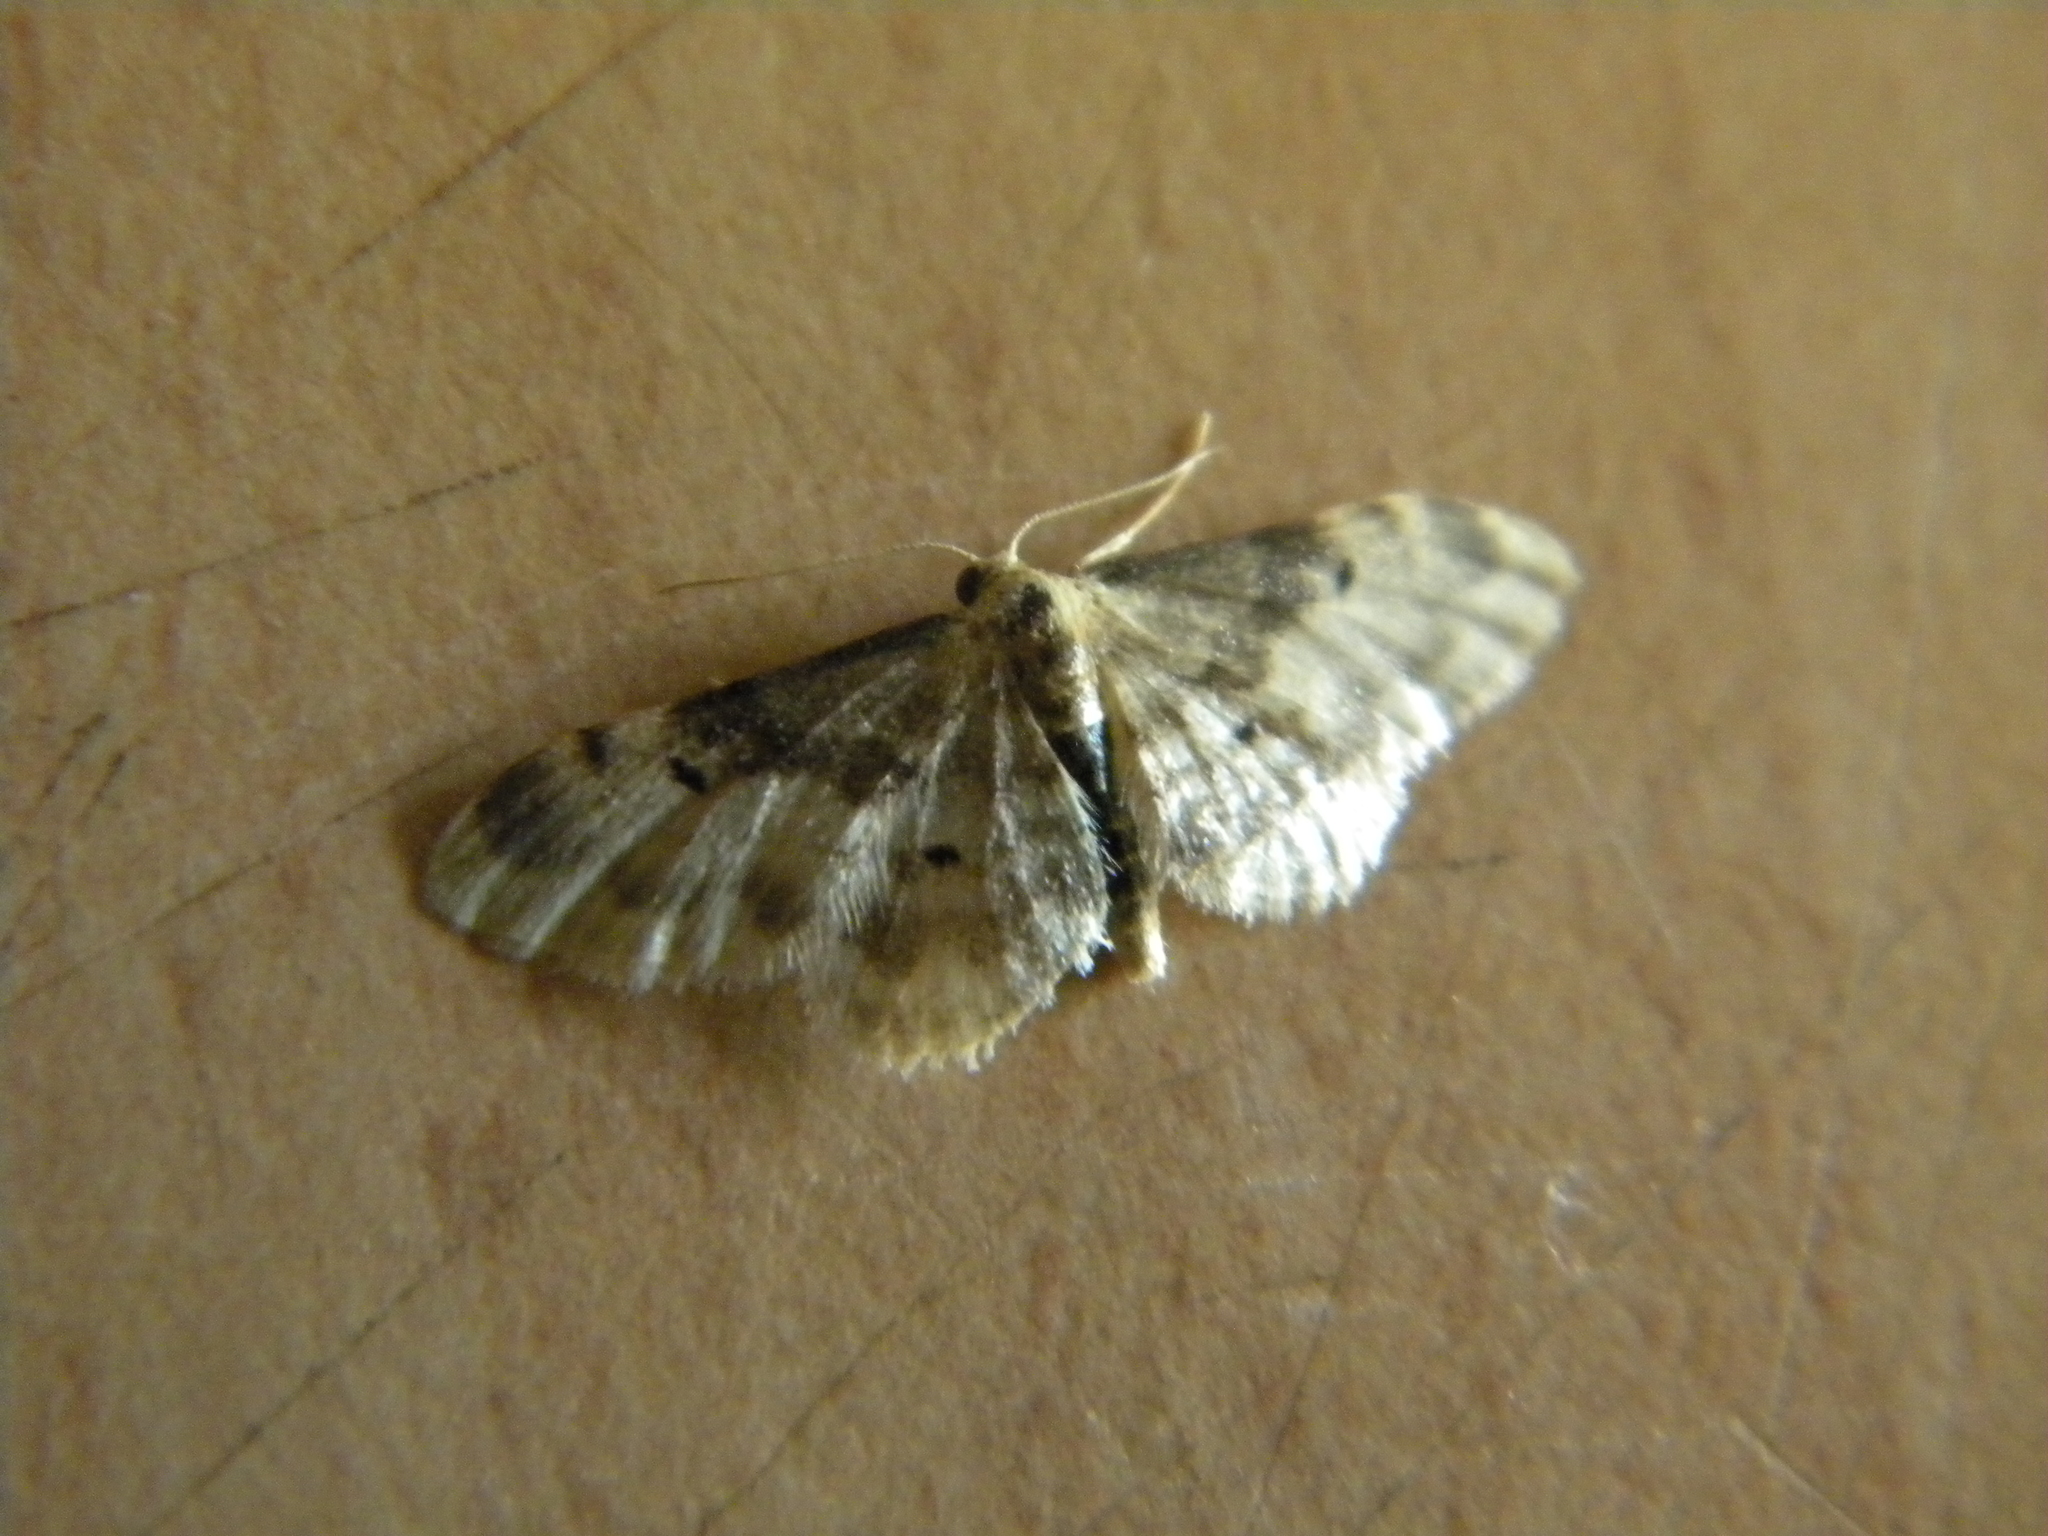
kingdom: Animalia
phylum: Arthropoda
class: Insecta
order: Lepidoptera
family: Geometridae
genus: Idaea
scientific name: Idaea filicata
